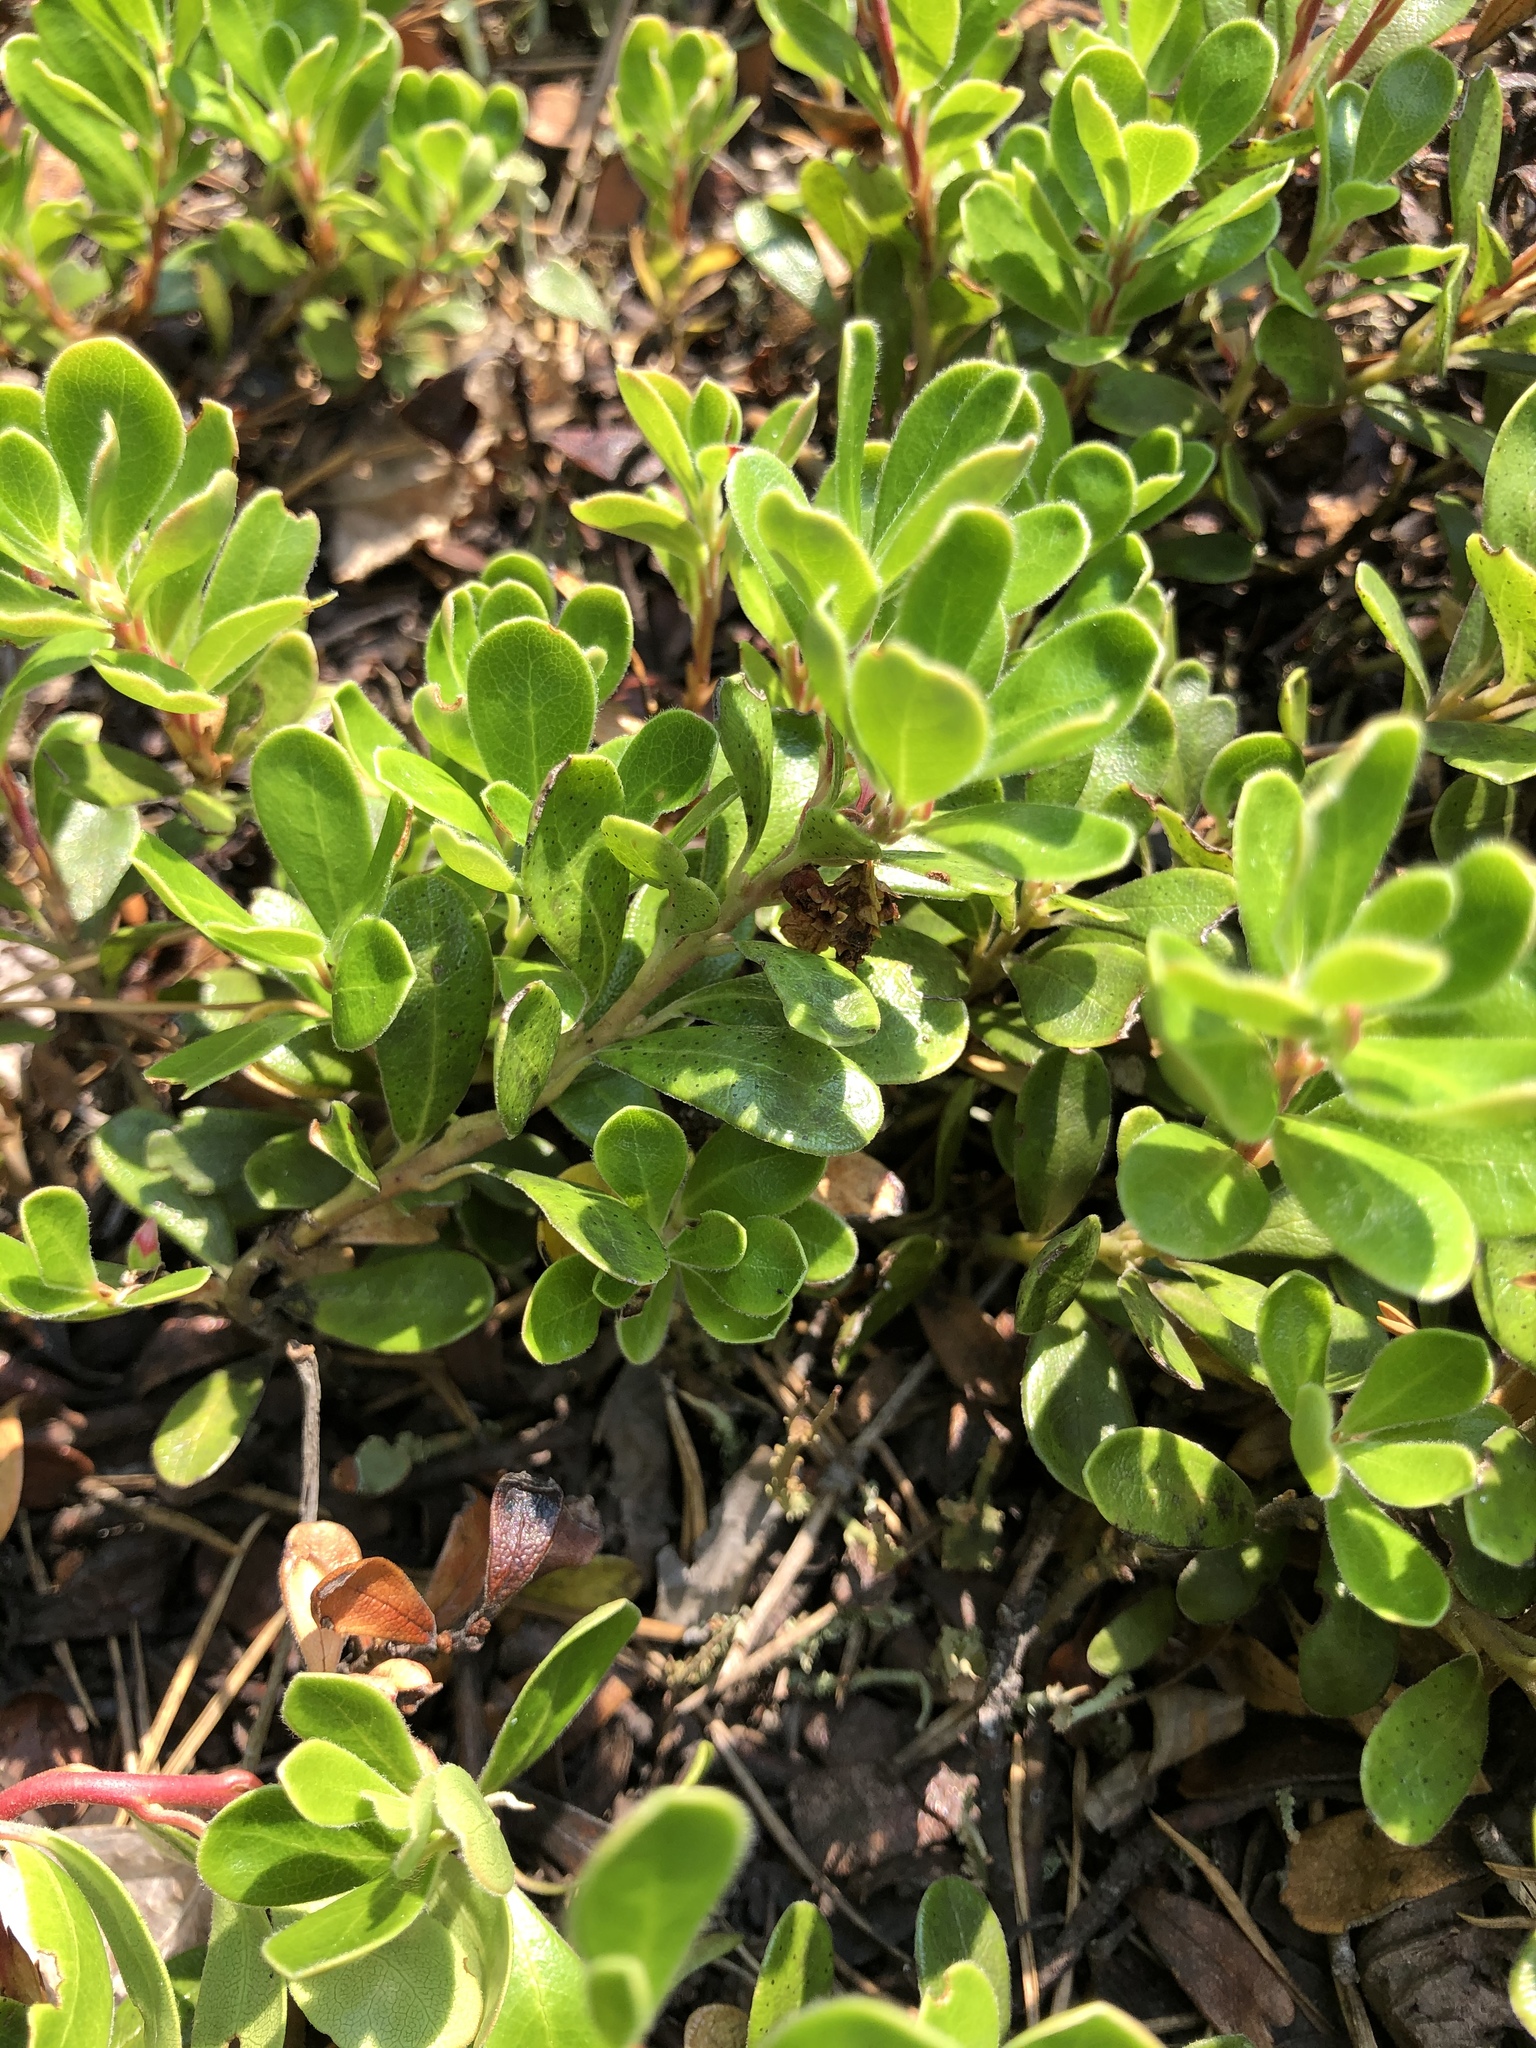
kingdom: Plantae
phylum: Tracheophyta
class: Magnoliopsida
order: Ericales
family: Ericaceae
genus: Arctostaphylos
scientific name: Arctostaphylos uva-ursi
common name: Bearberry
